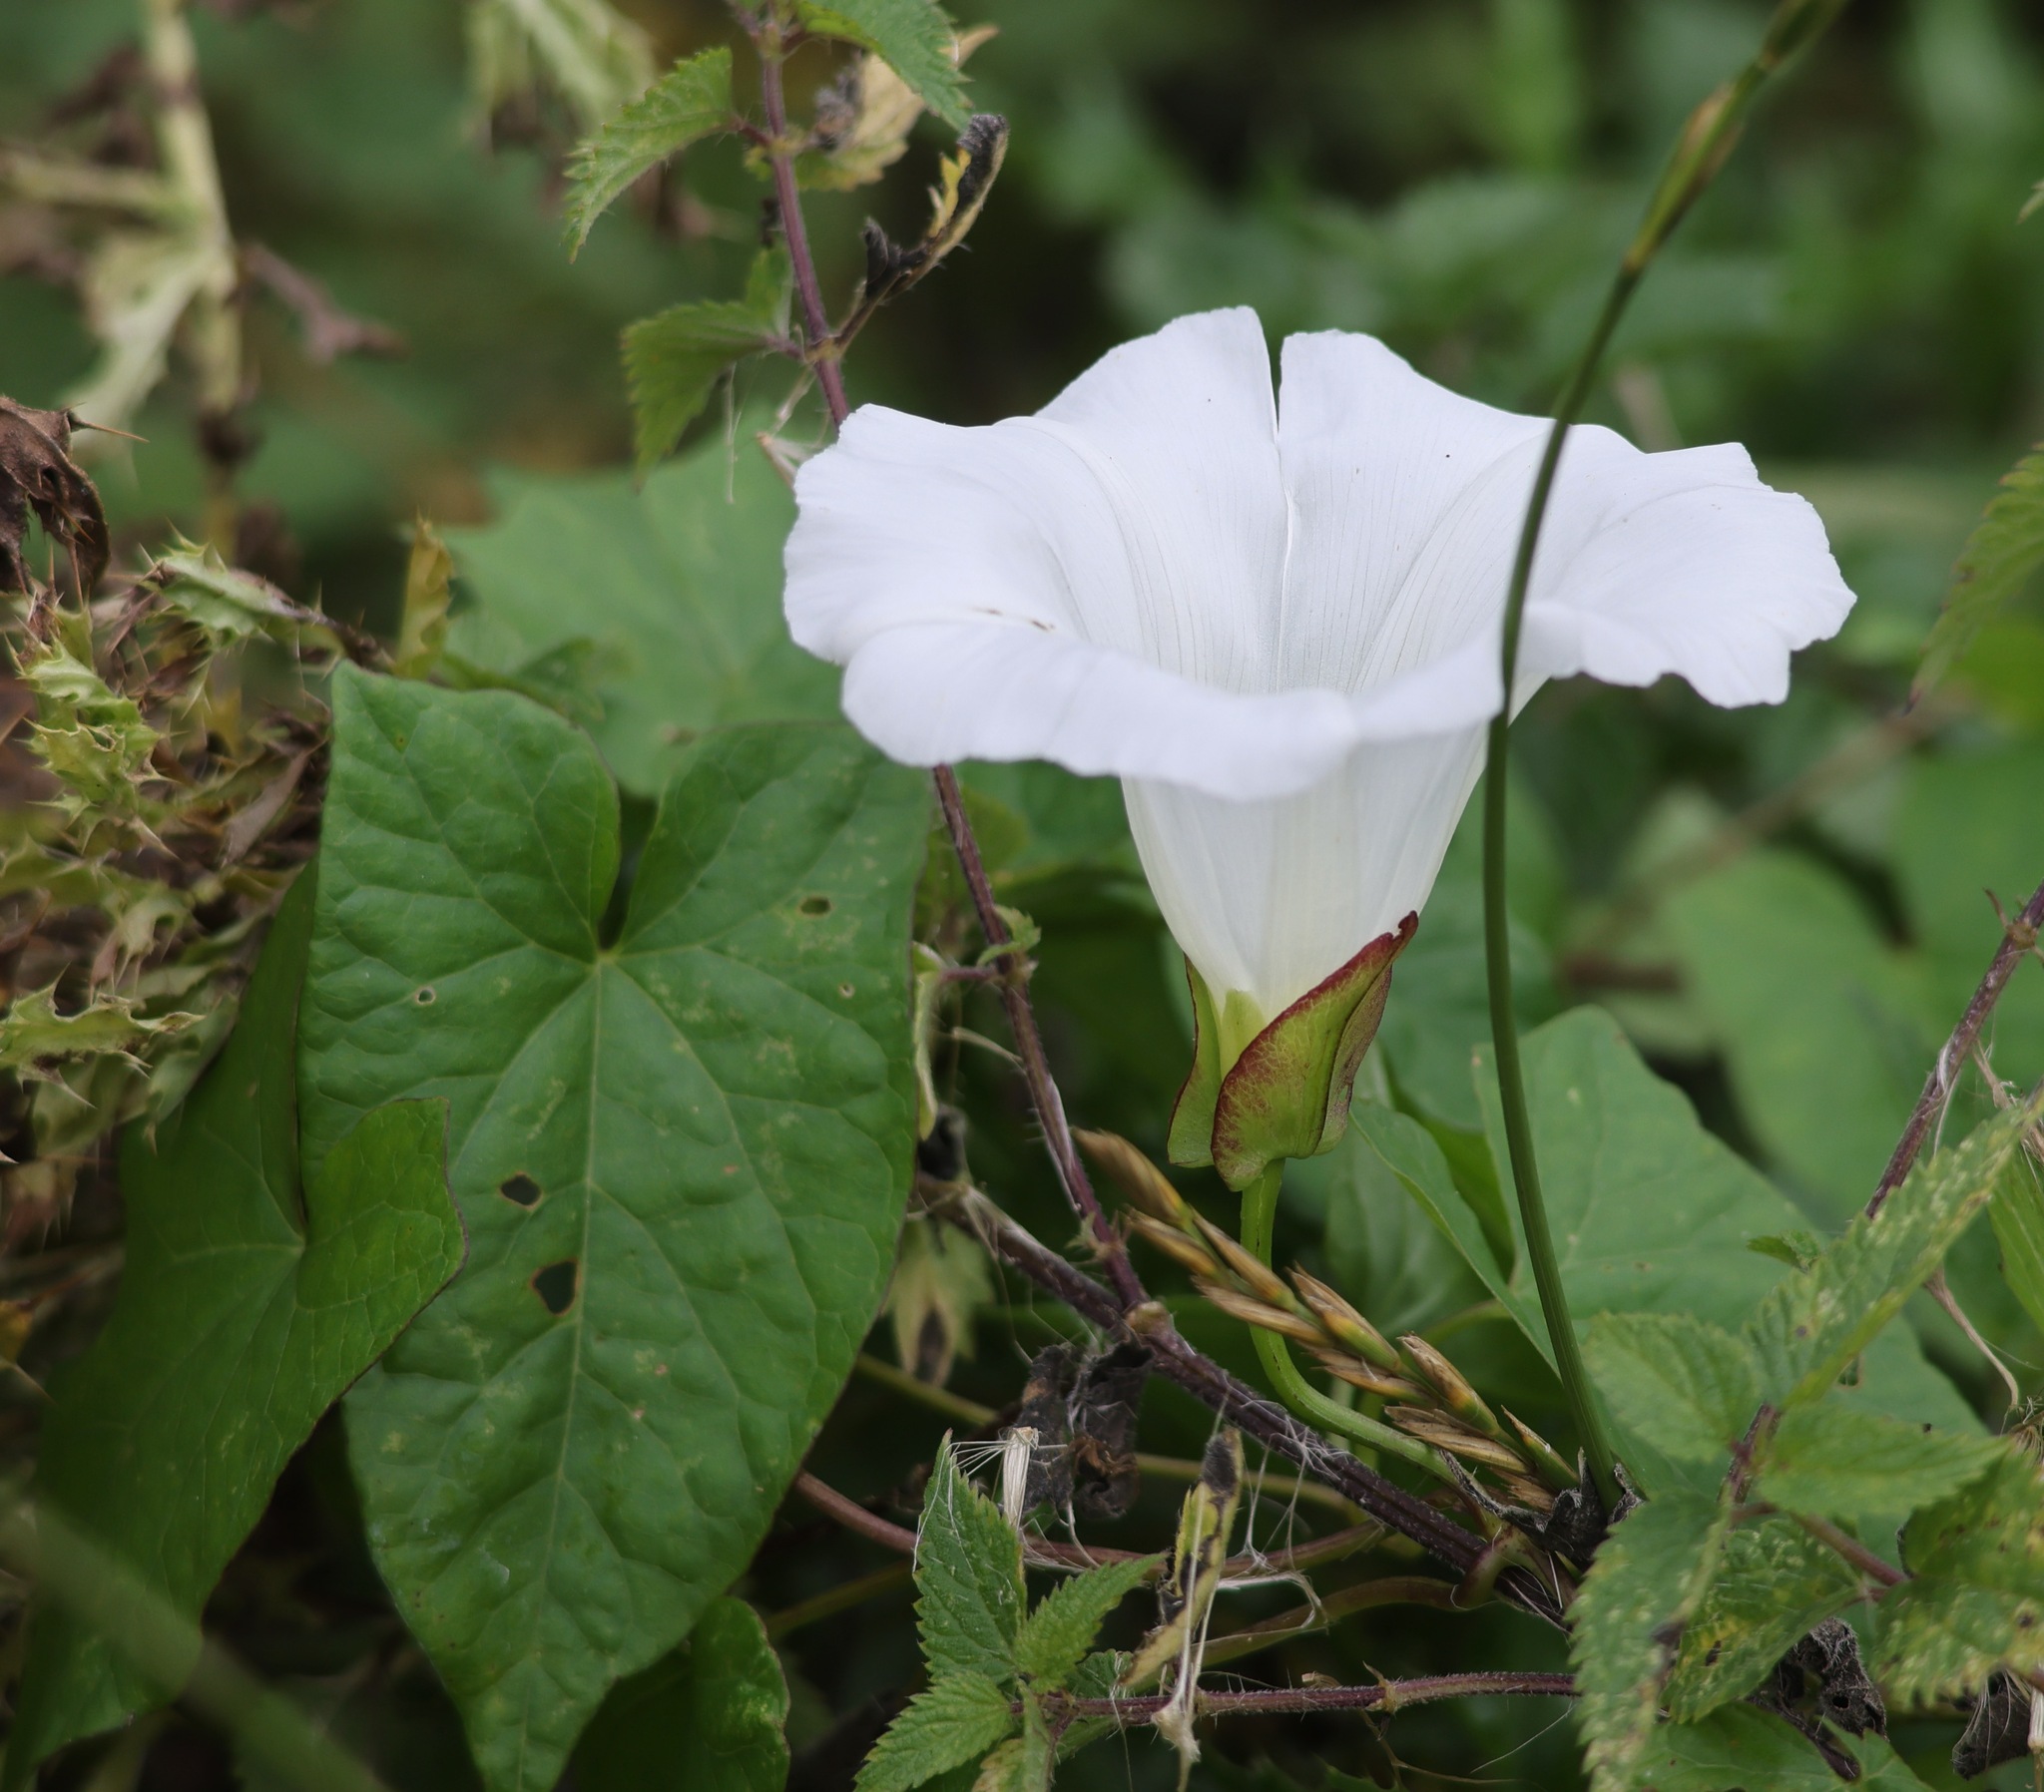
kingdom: Plantae
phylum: Tracheophyta
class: Magnoliopsida
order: Solanales
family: Convolvulaceae
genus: Calystegia
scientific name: Calystegia sepium
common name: Hedge bindweed
